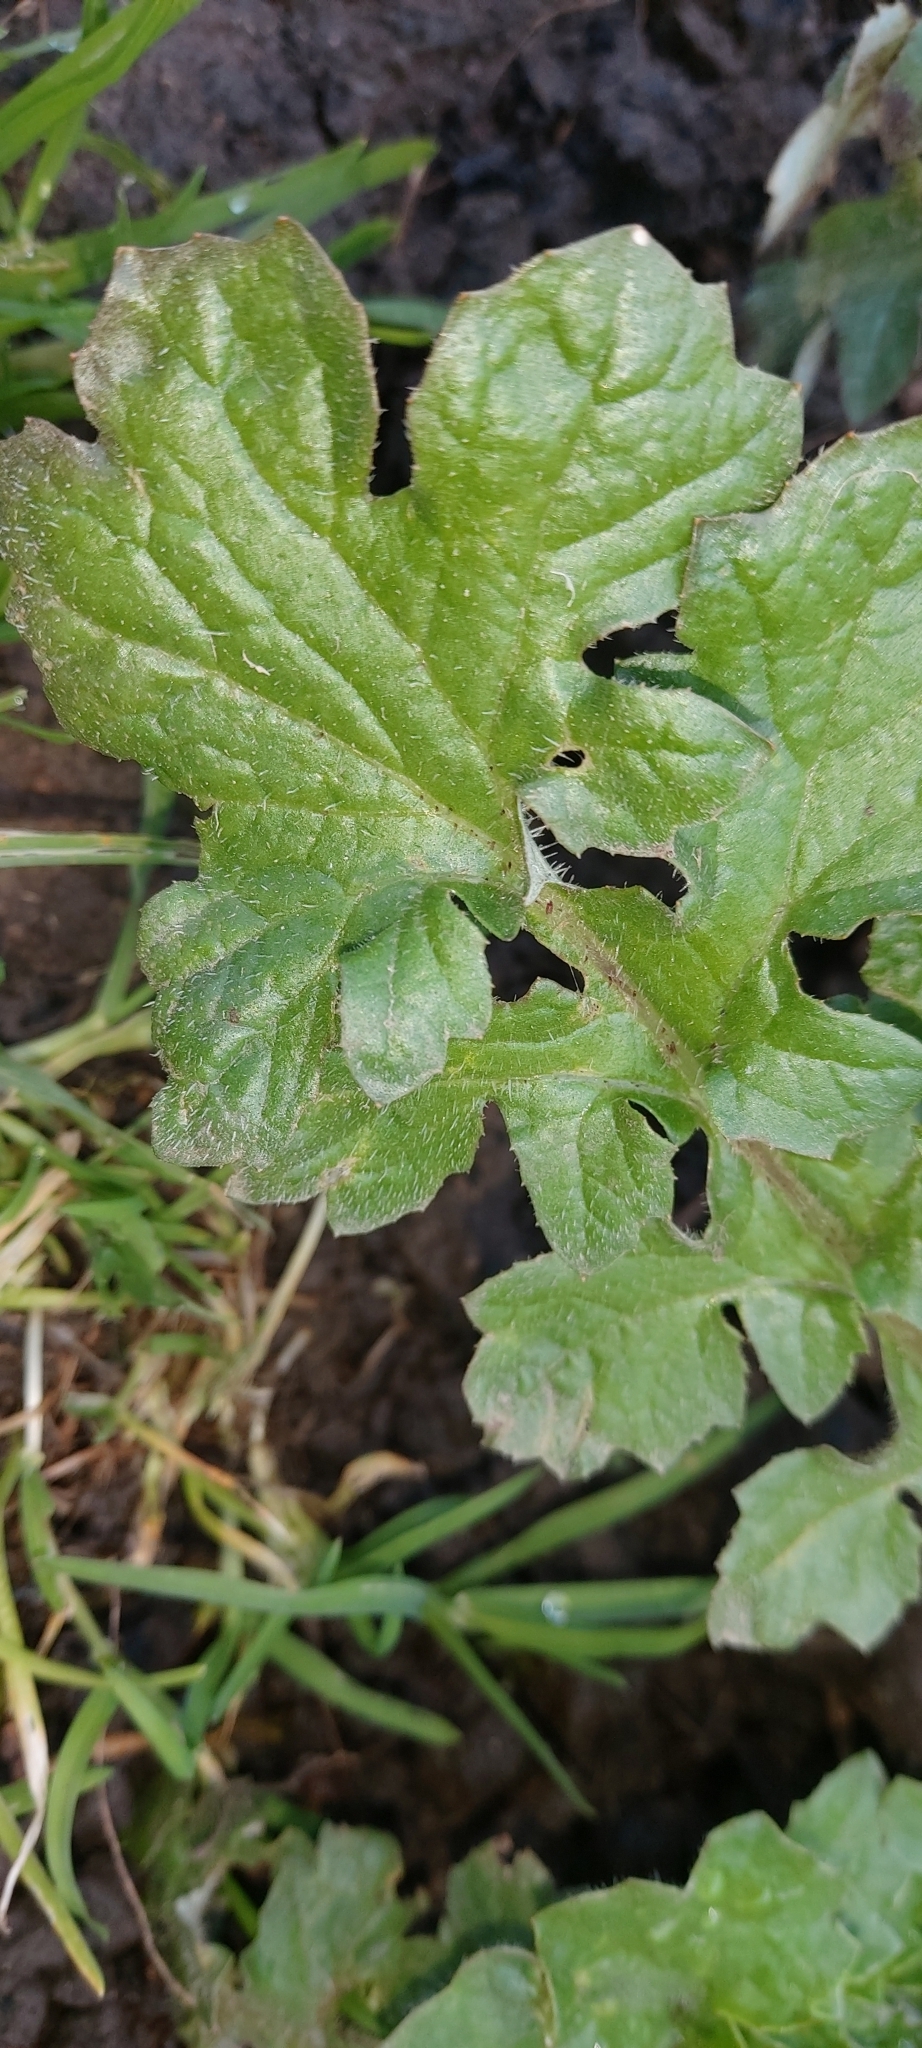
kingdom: Plantae
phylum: Tracheophyta
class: Magnoliopsida
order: Asterales
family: Asteraceae
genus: Arctotheca
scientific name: Arctotheca calendula
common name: Capeweed
